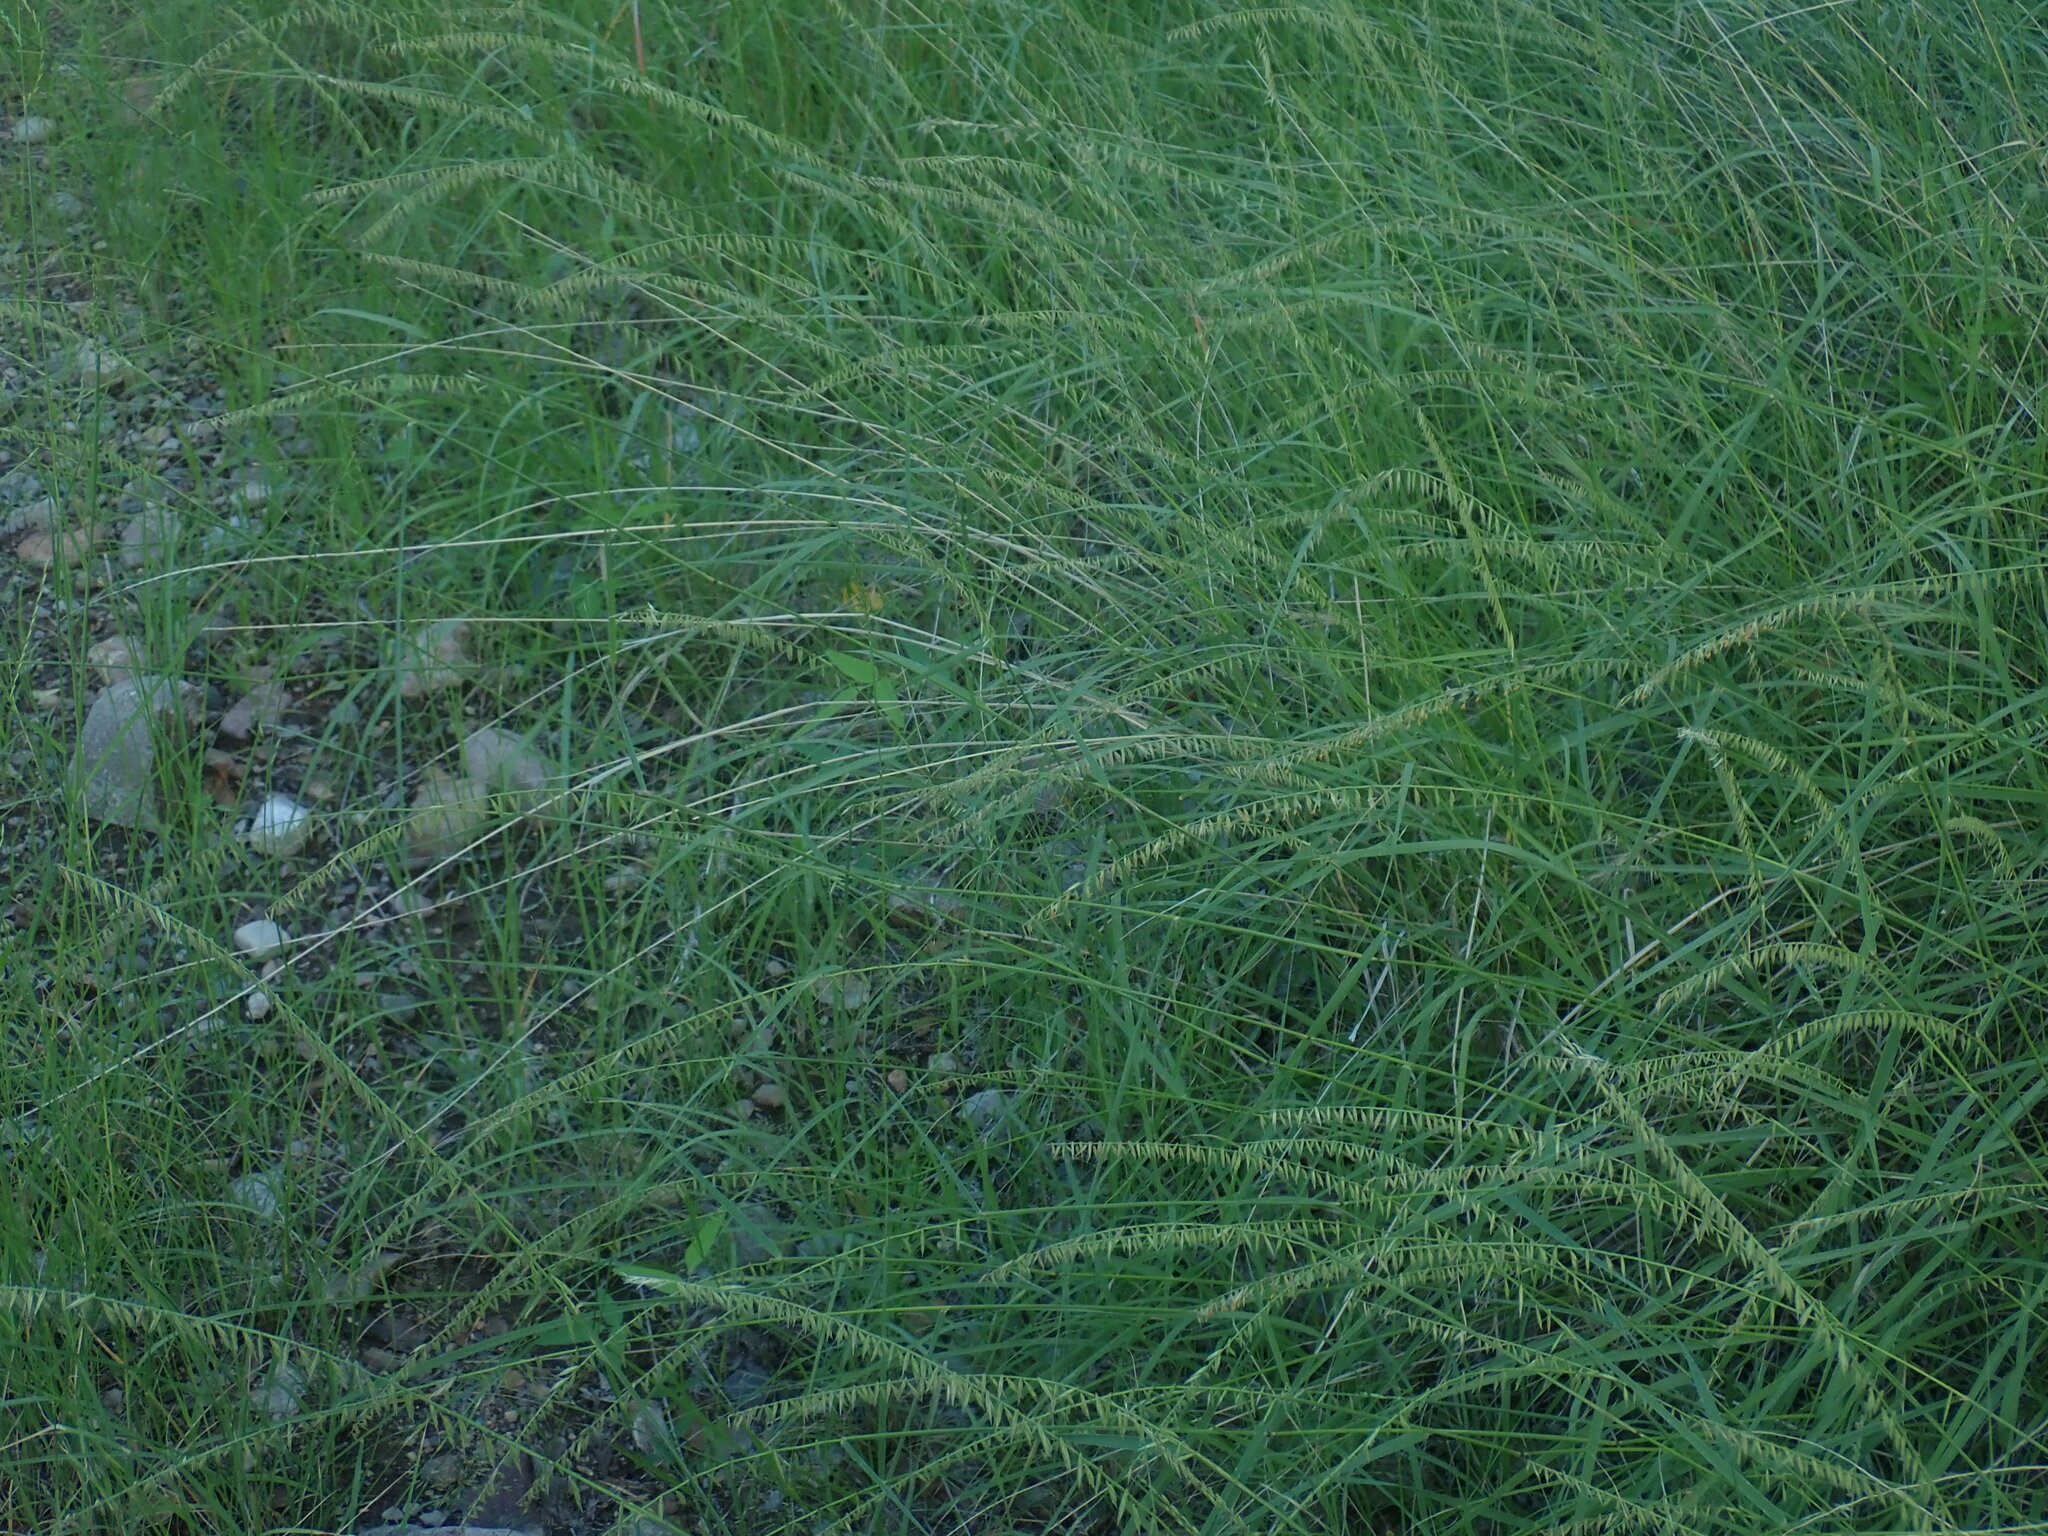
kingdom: Plantae
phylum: Tracheophyta
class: Liliopsida
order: Poales
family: Poaceae
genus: Bouteloua
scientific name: Bouteloua curtipendula
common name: Side-oats grama
